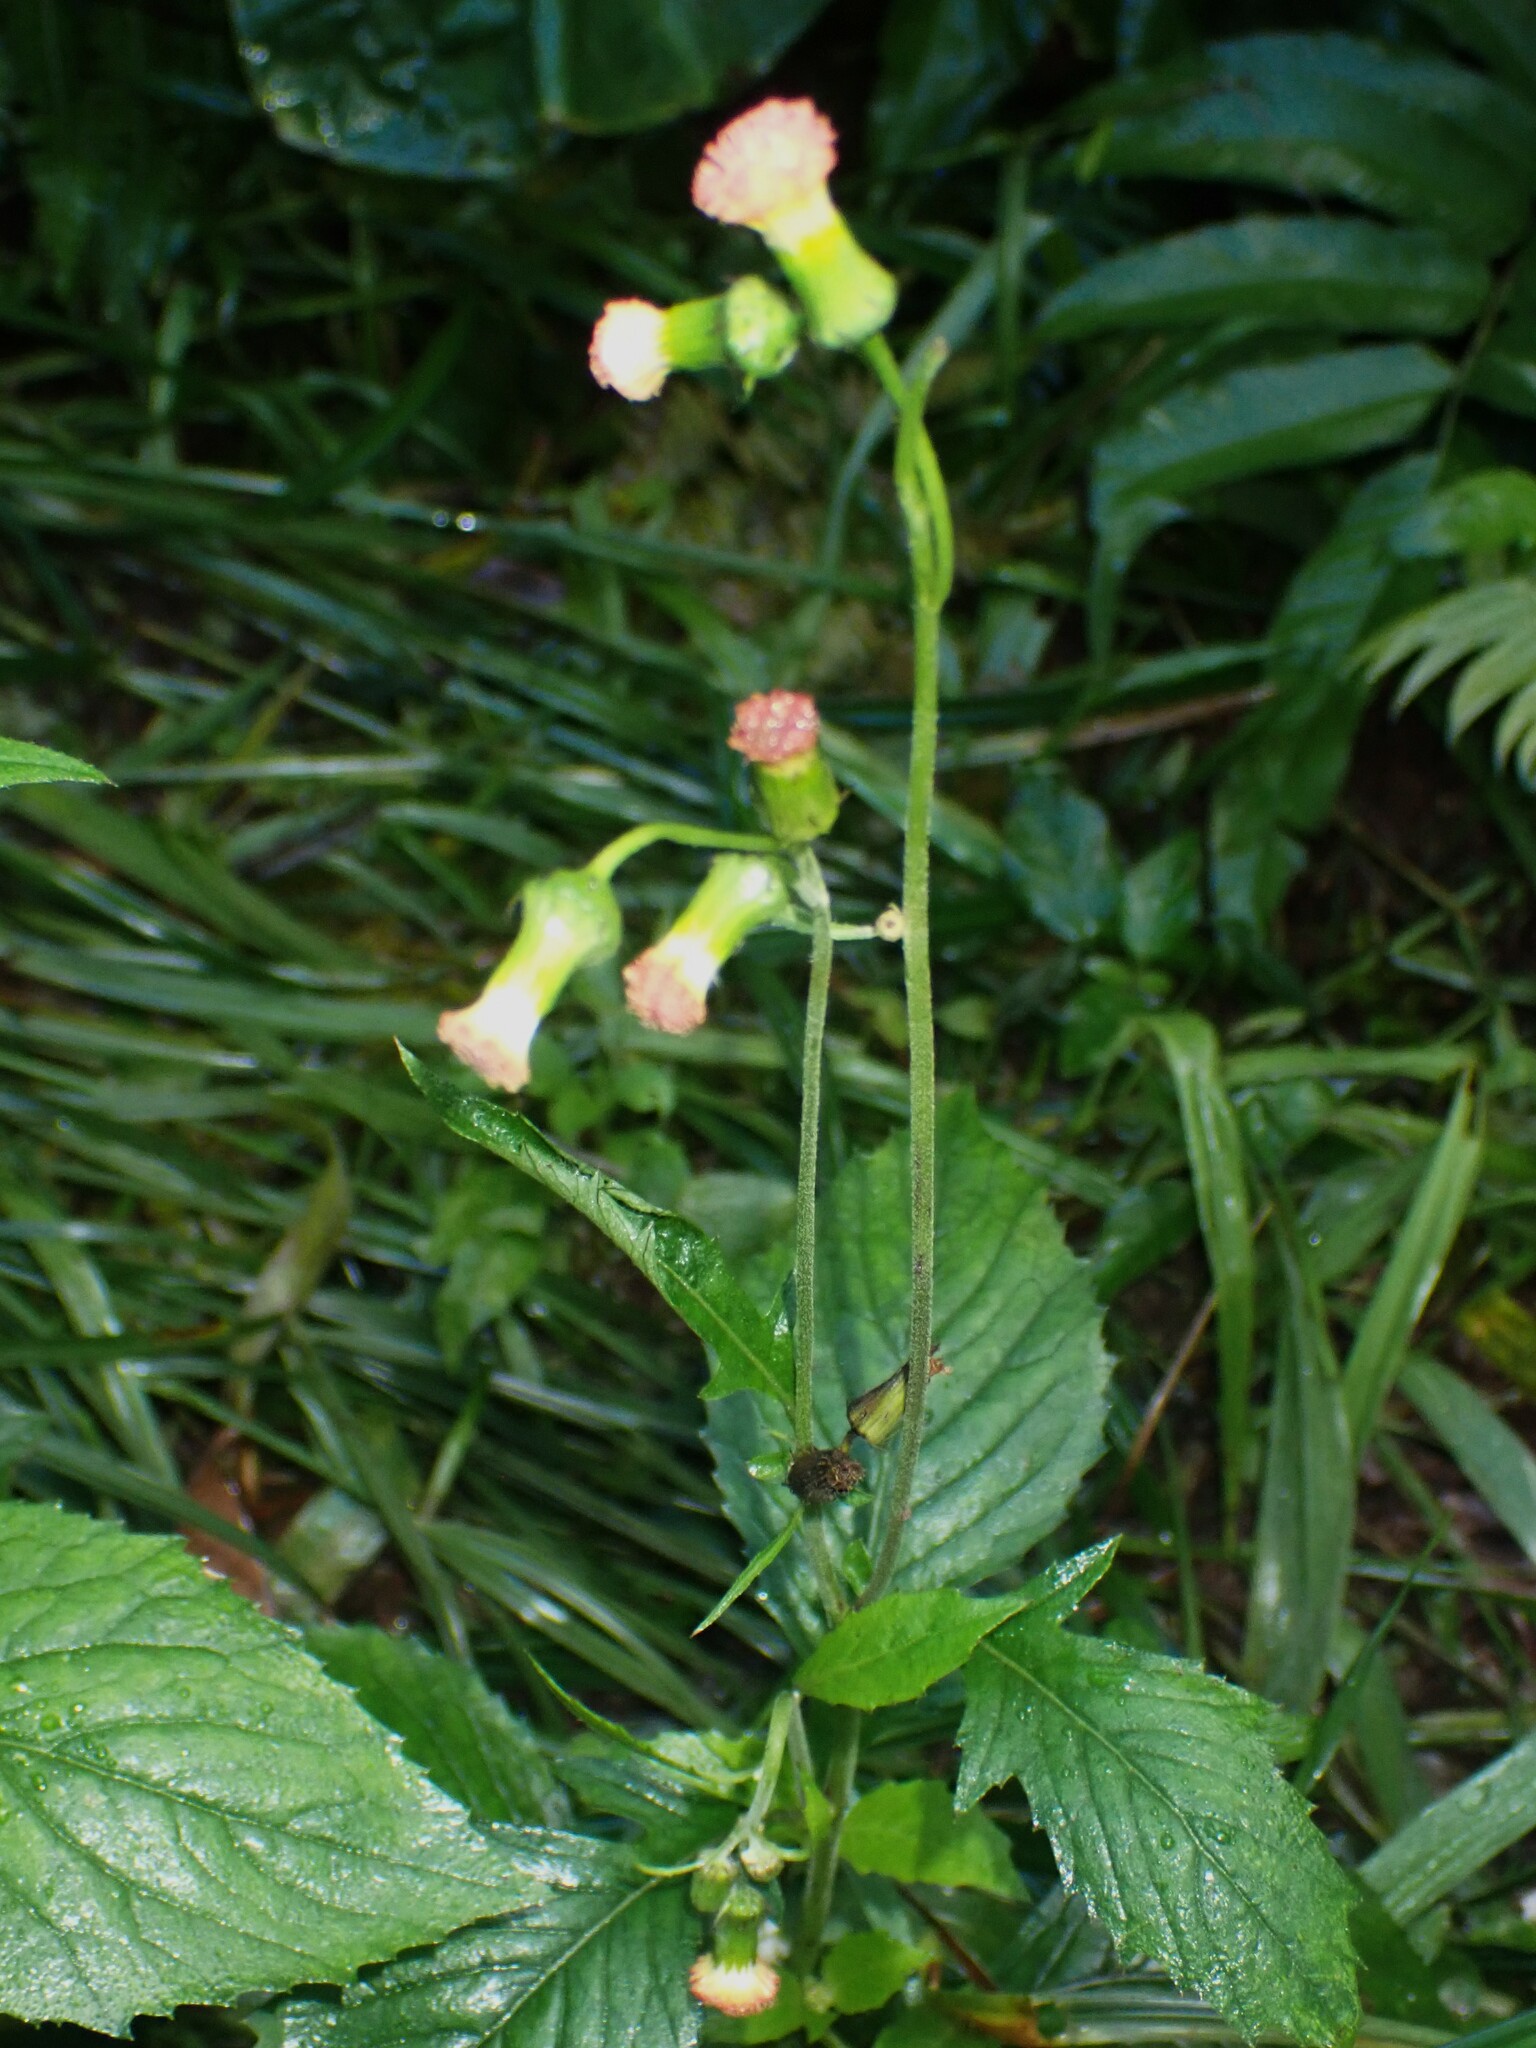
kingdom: Plantae
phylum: Tracheophyta
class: Magnoliopsida
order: Asterales
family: Asteraceae
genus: Crassocephalum
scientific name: Crassocephalum crepidioides
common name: Redflower ragleaf
